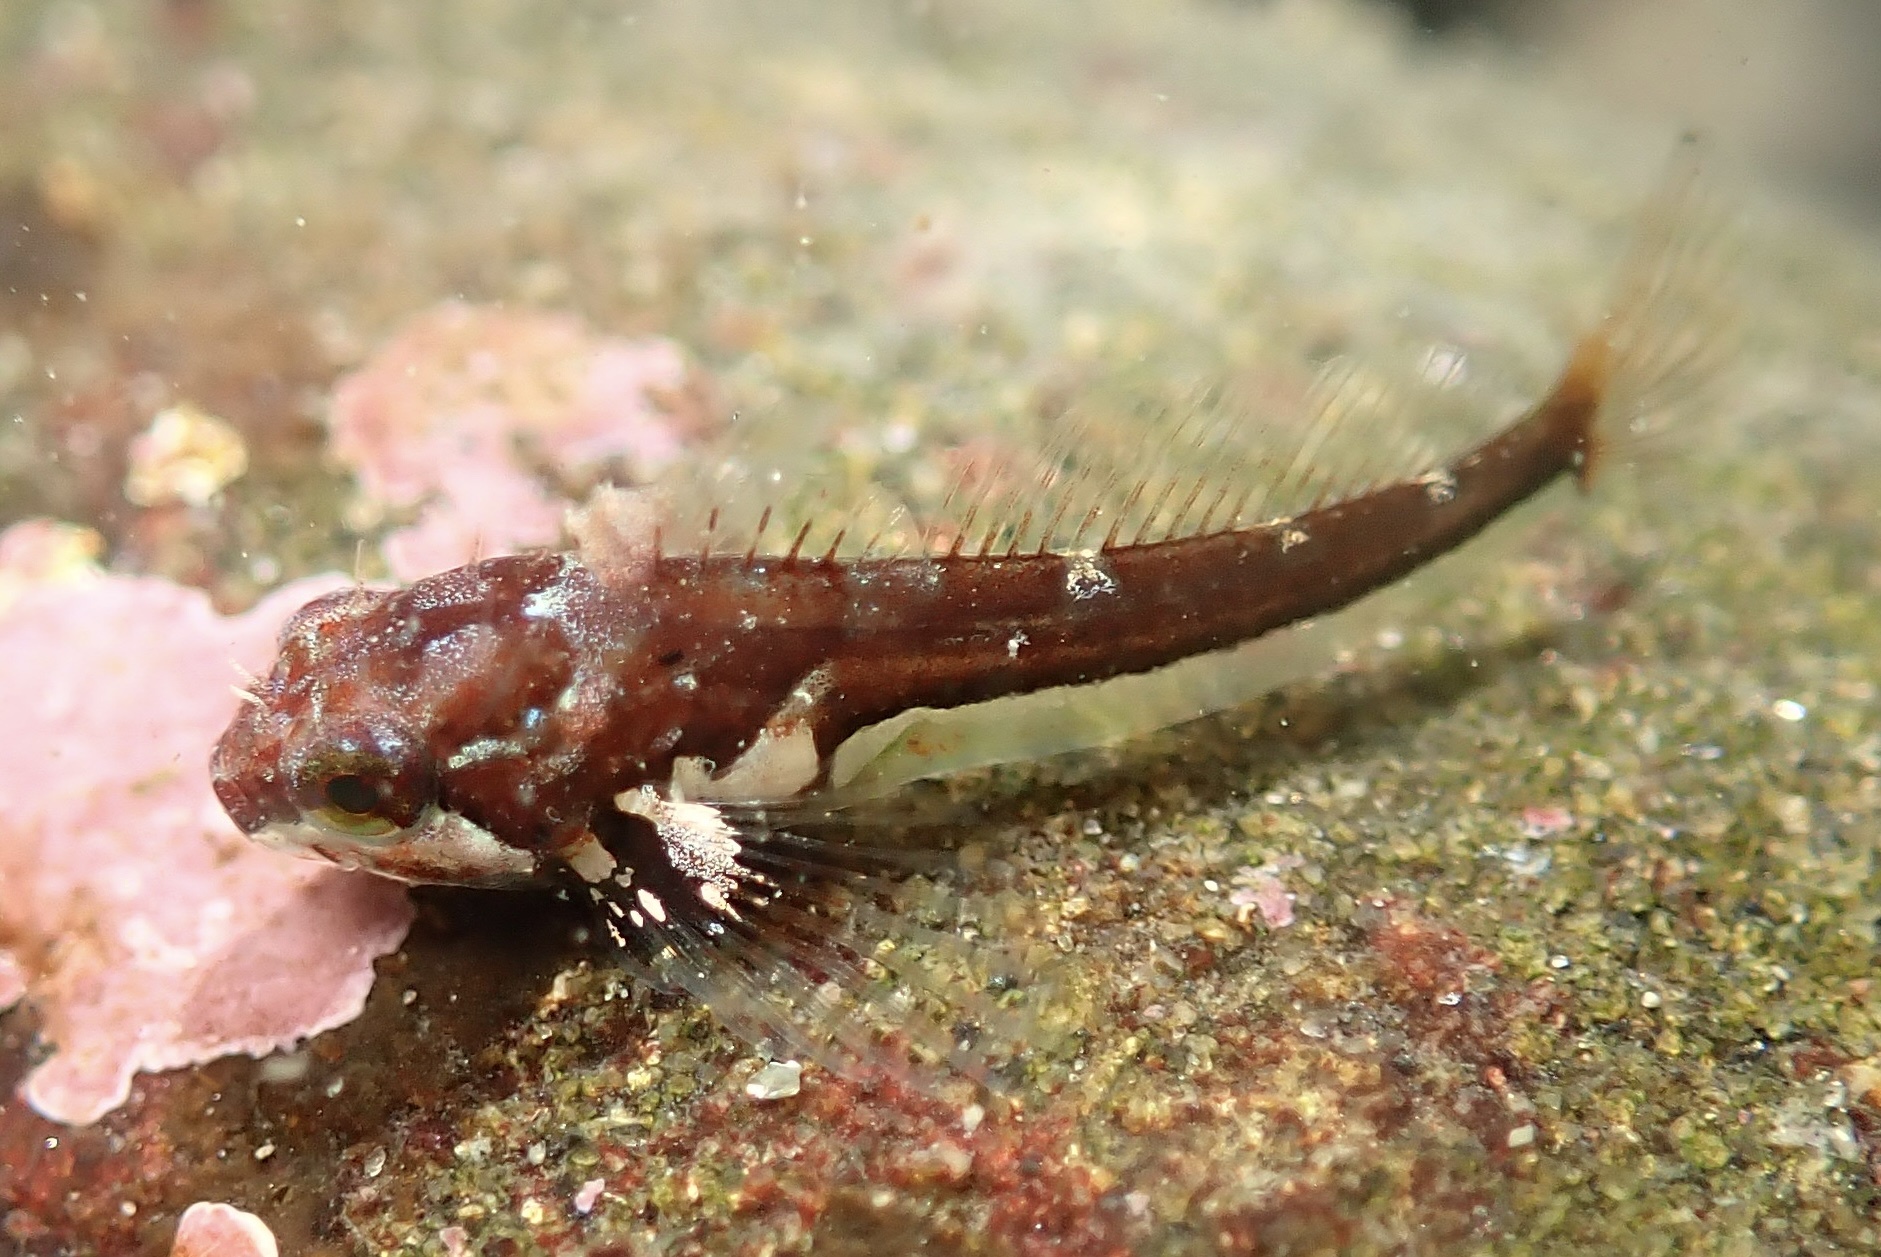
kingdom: Animalia
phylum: Chordata
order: Scorpaeniformes
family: Cottidae
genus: Oligocottus
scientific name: Oligocottus snyderi
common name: Fluffy sculpin
